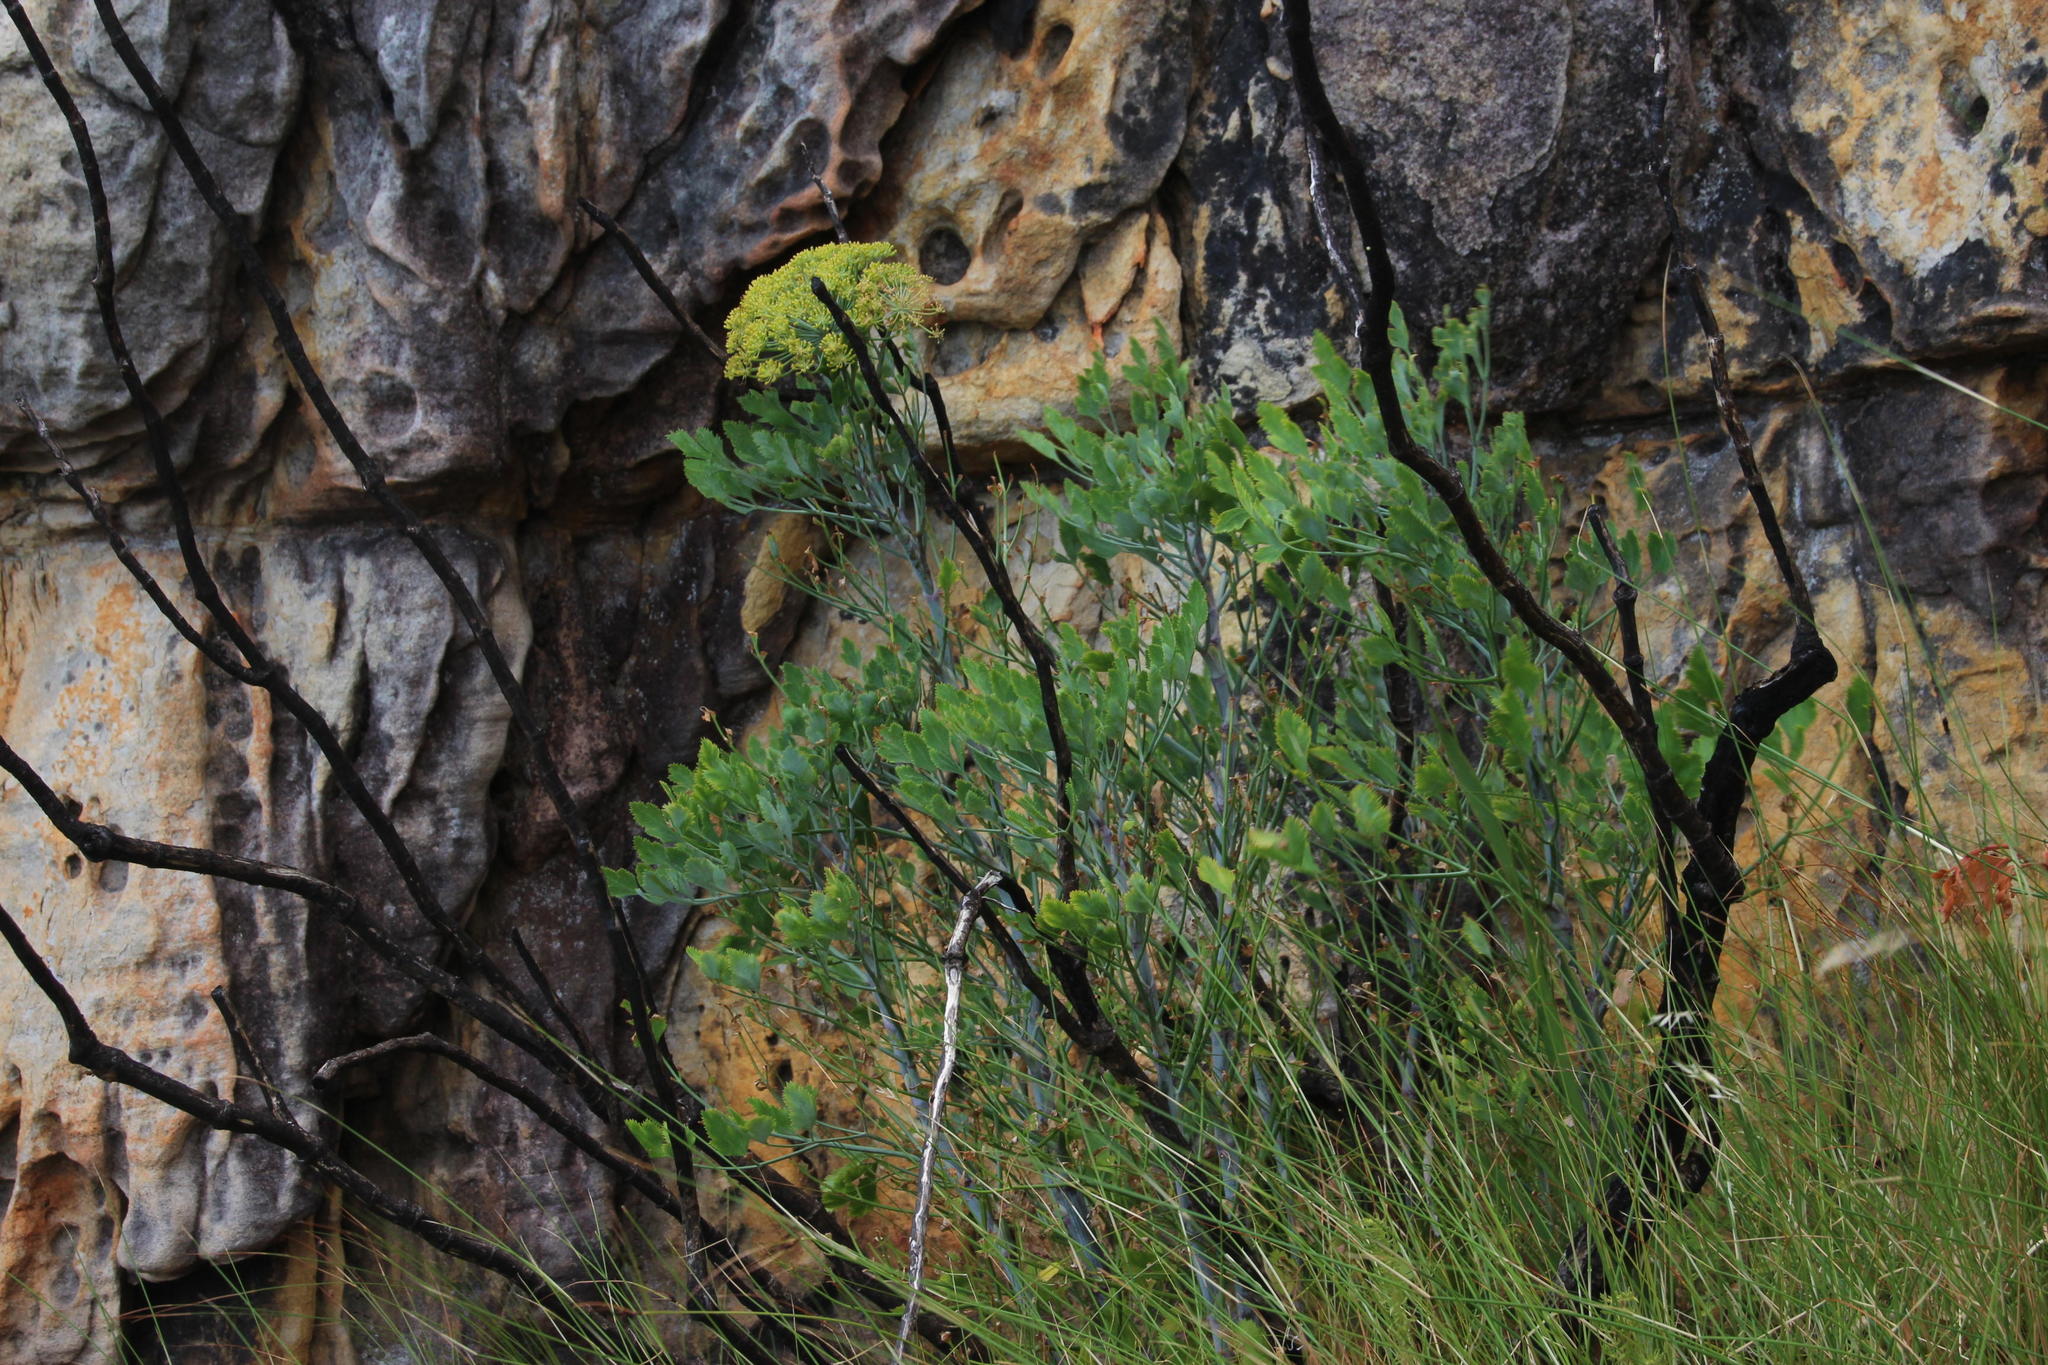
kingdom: Plantae
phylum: Tracheophyta
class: Magnoliopsida
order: Apiales
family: Apiaceae
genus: Notobubon
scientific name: Notobubon galbanum
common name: Blisterbush
